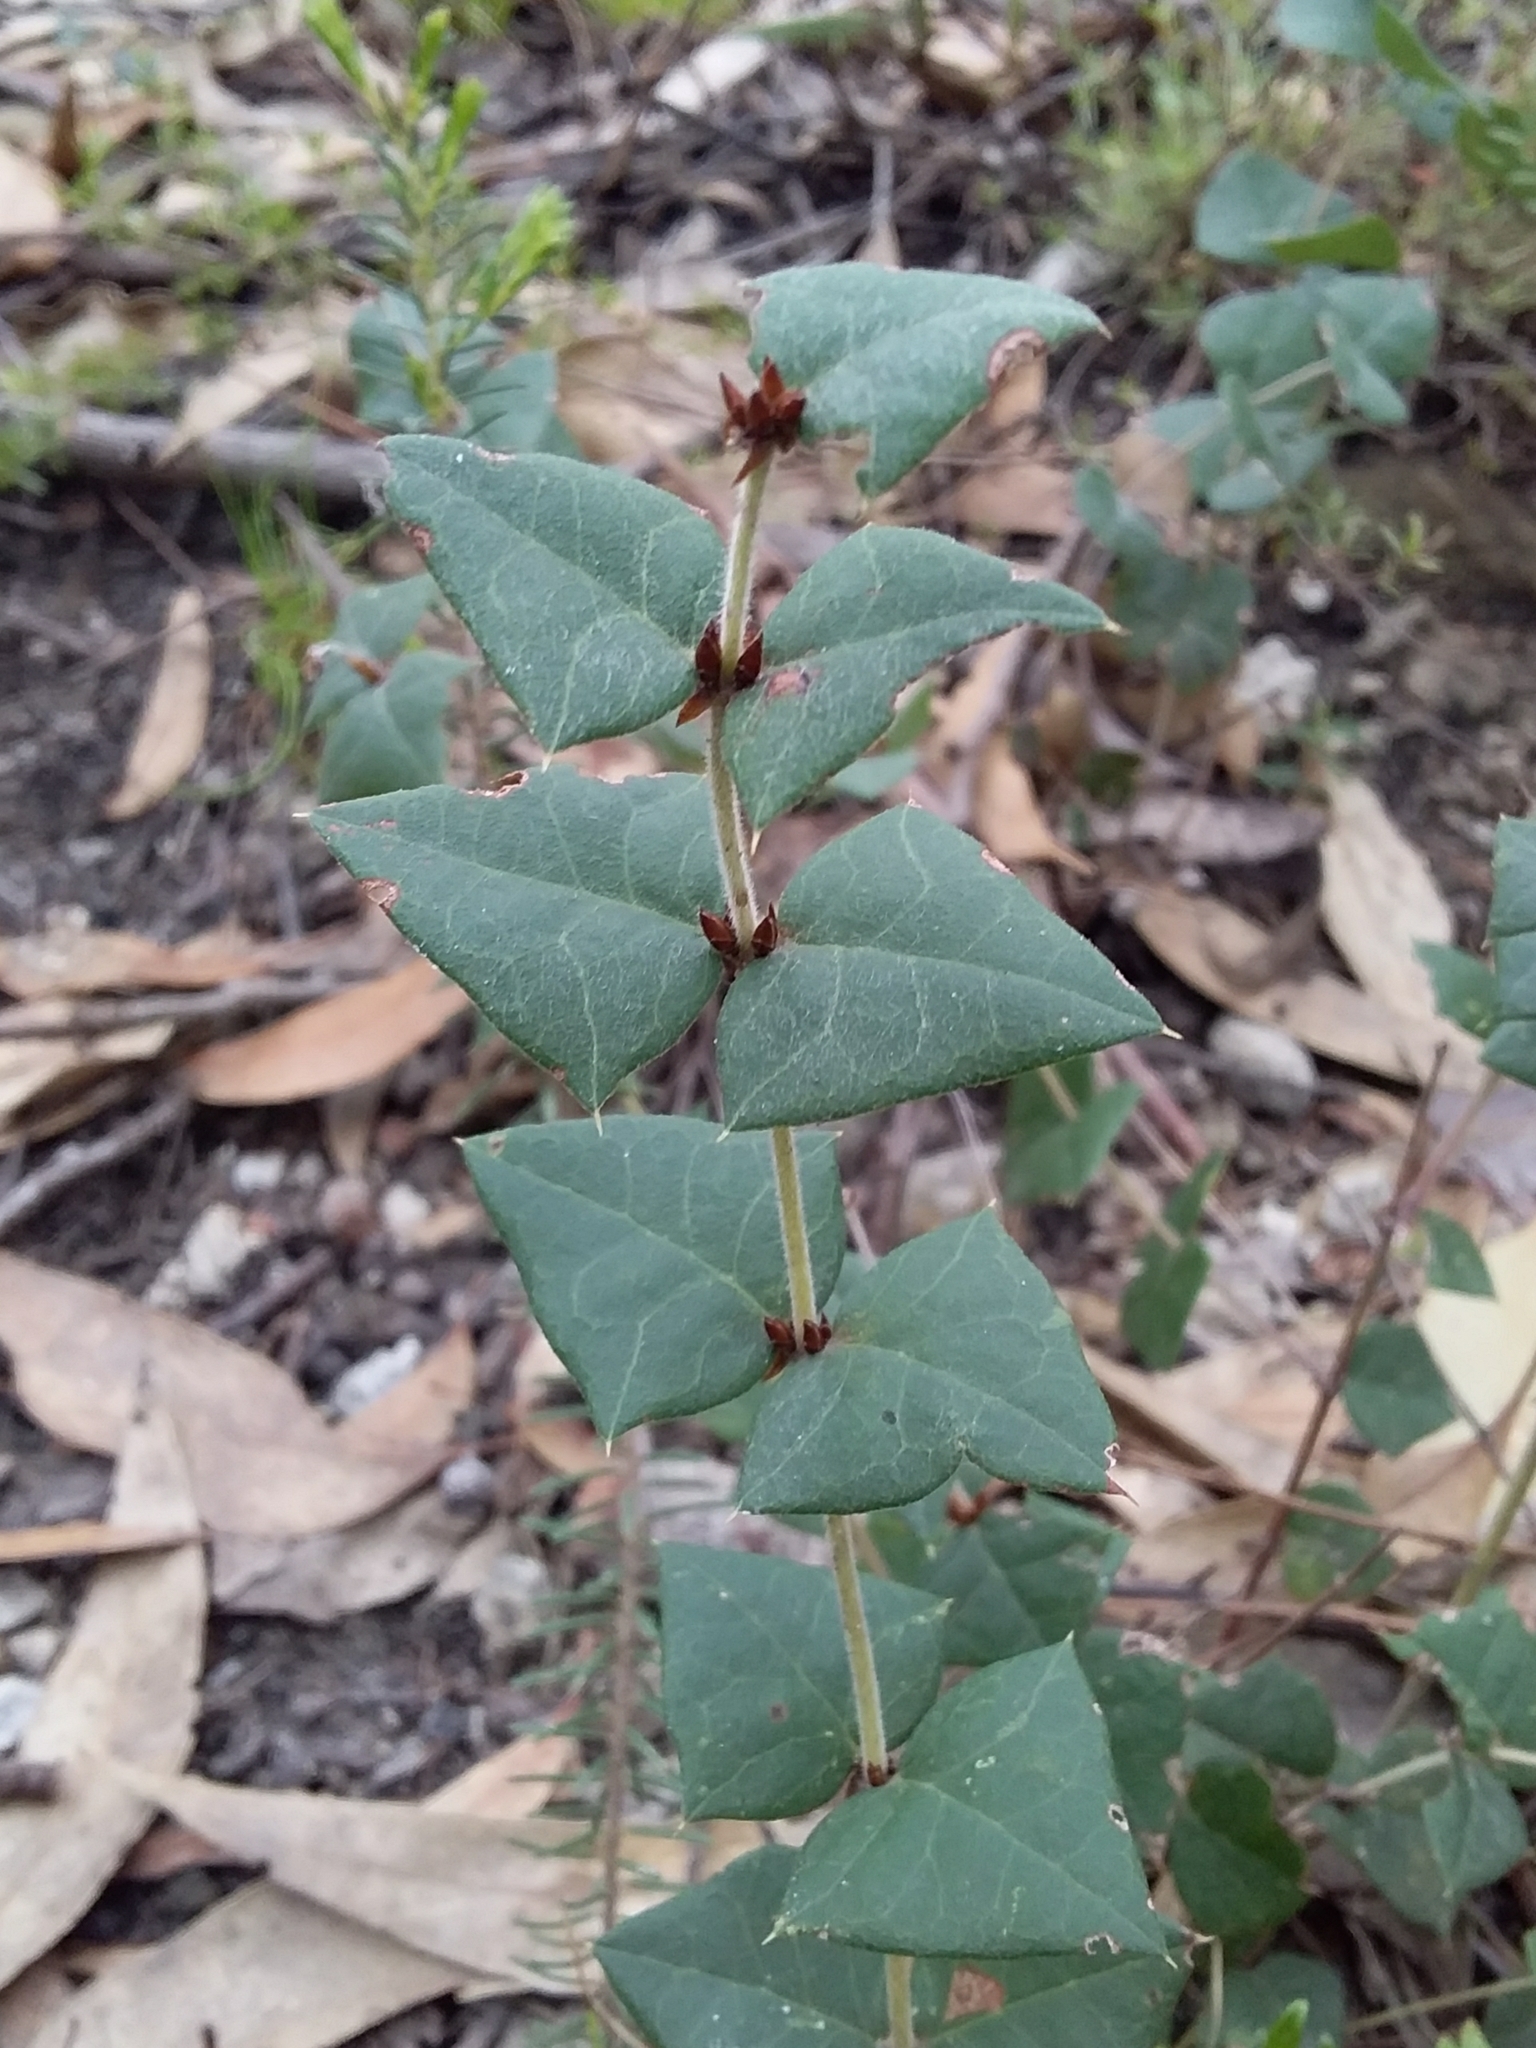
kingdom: Plantae
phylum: Tracheophyta
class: Magnoliopsida
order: Fabales
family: Fabaceae
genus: Platylobium
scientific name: Platylobium obtusangulum
